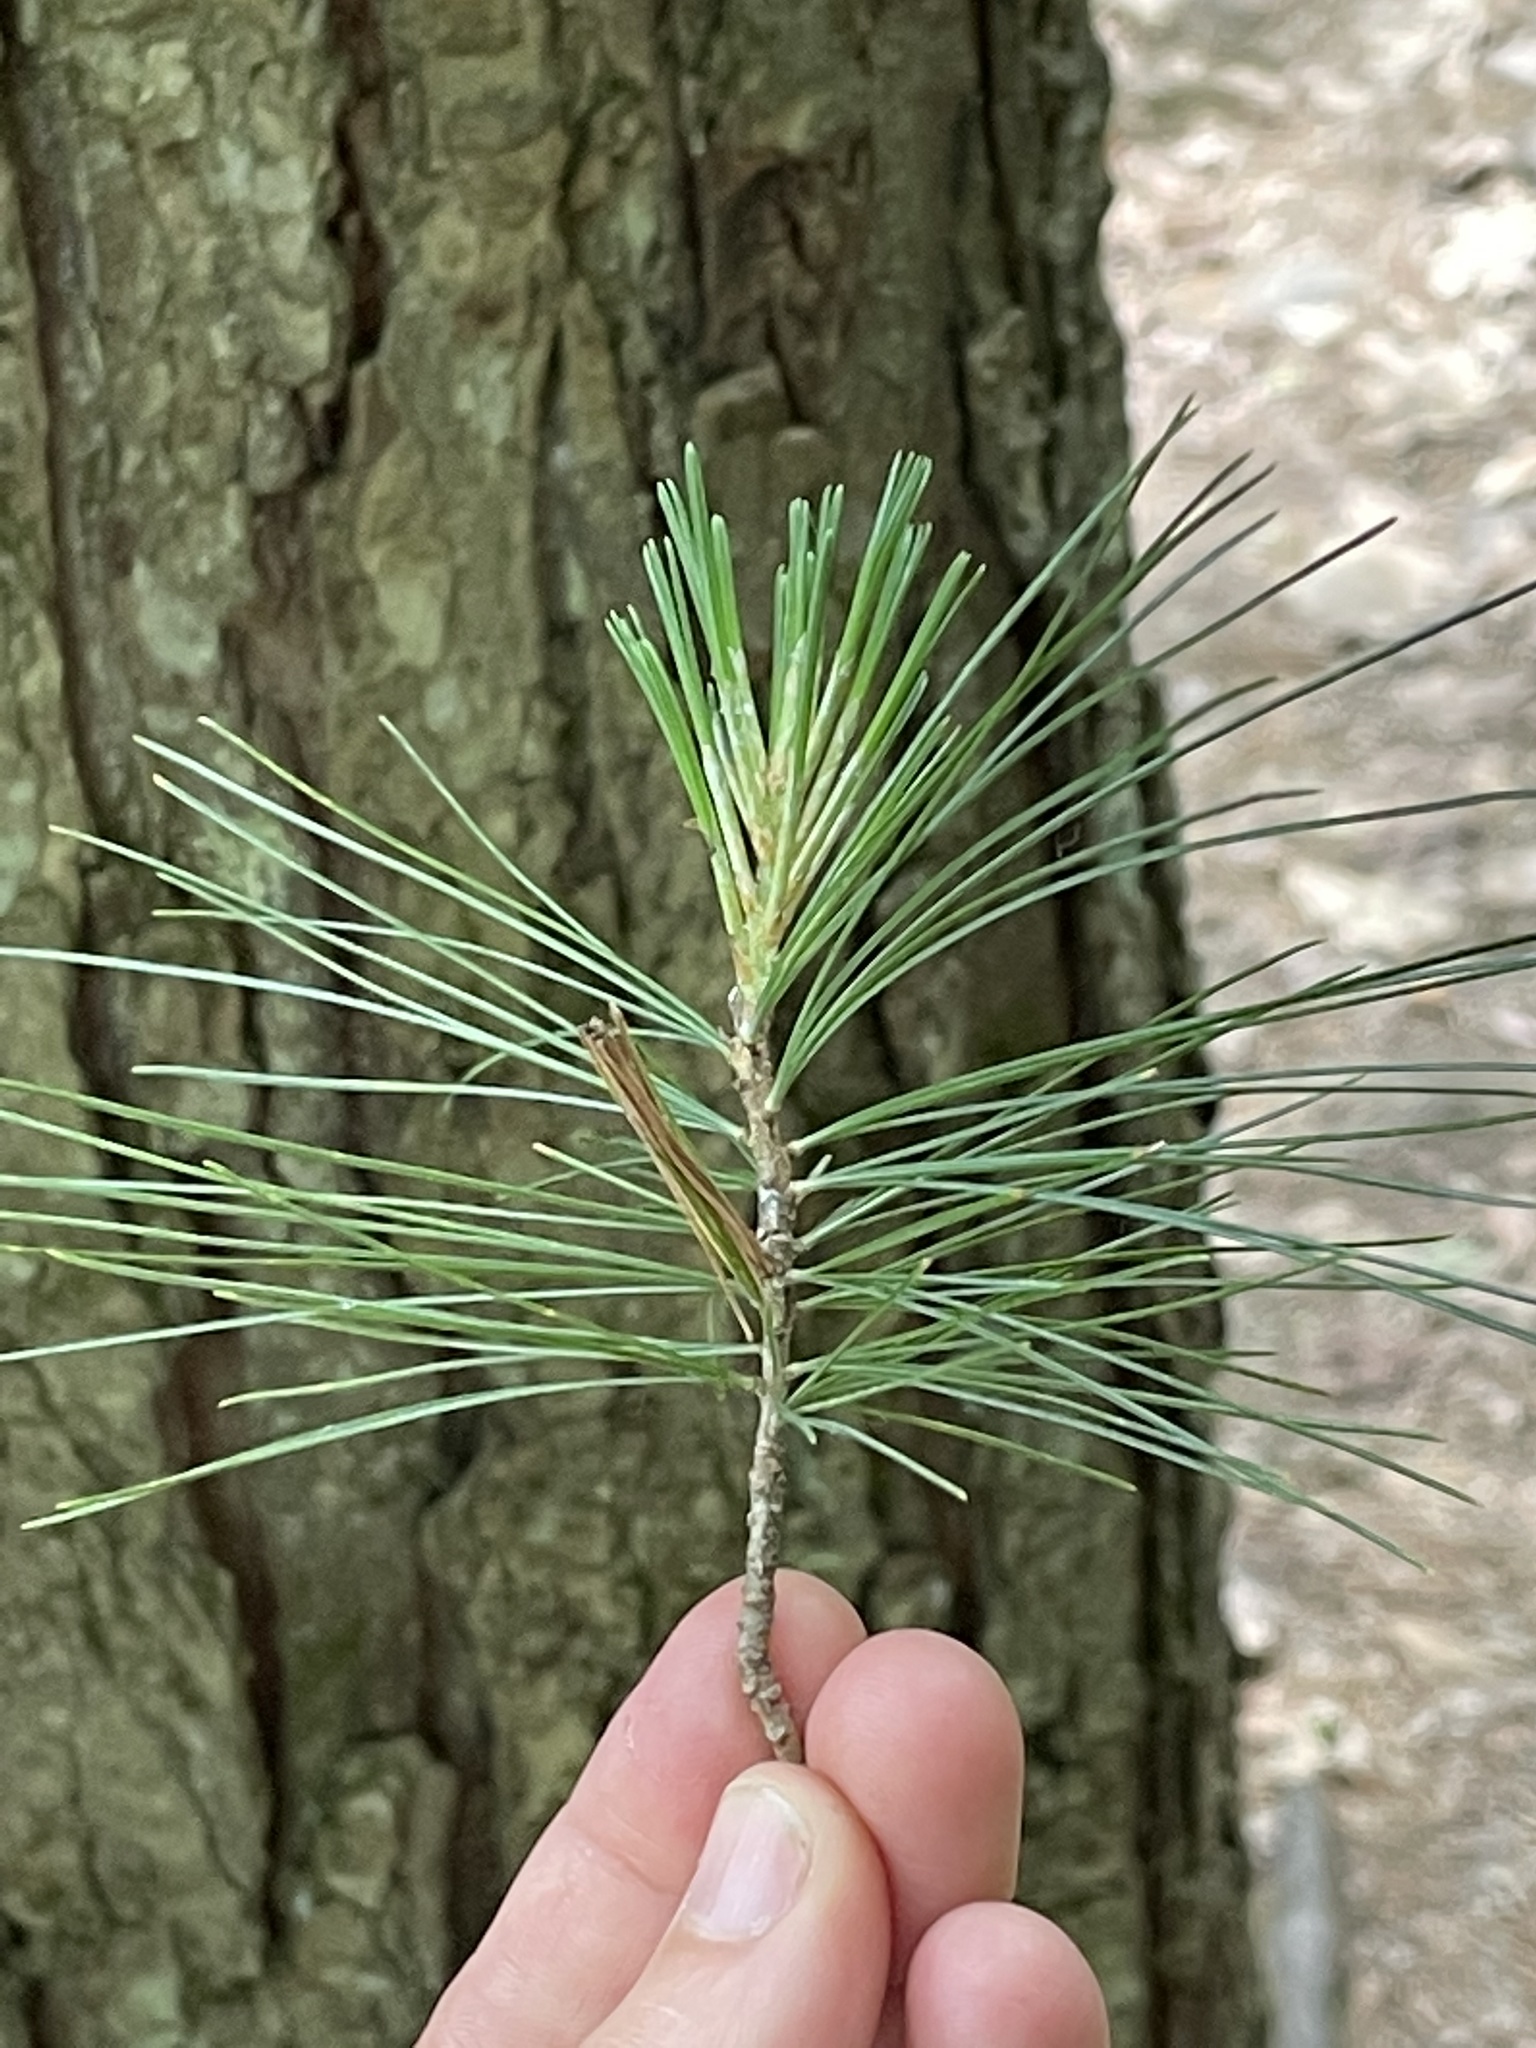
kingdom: Plantae
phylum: Tracheophyta
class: Pinopsida
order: Pinales
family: Pinaceae
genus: Pinus
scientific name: Pinus strobus
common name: Weymouth pine
